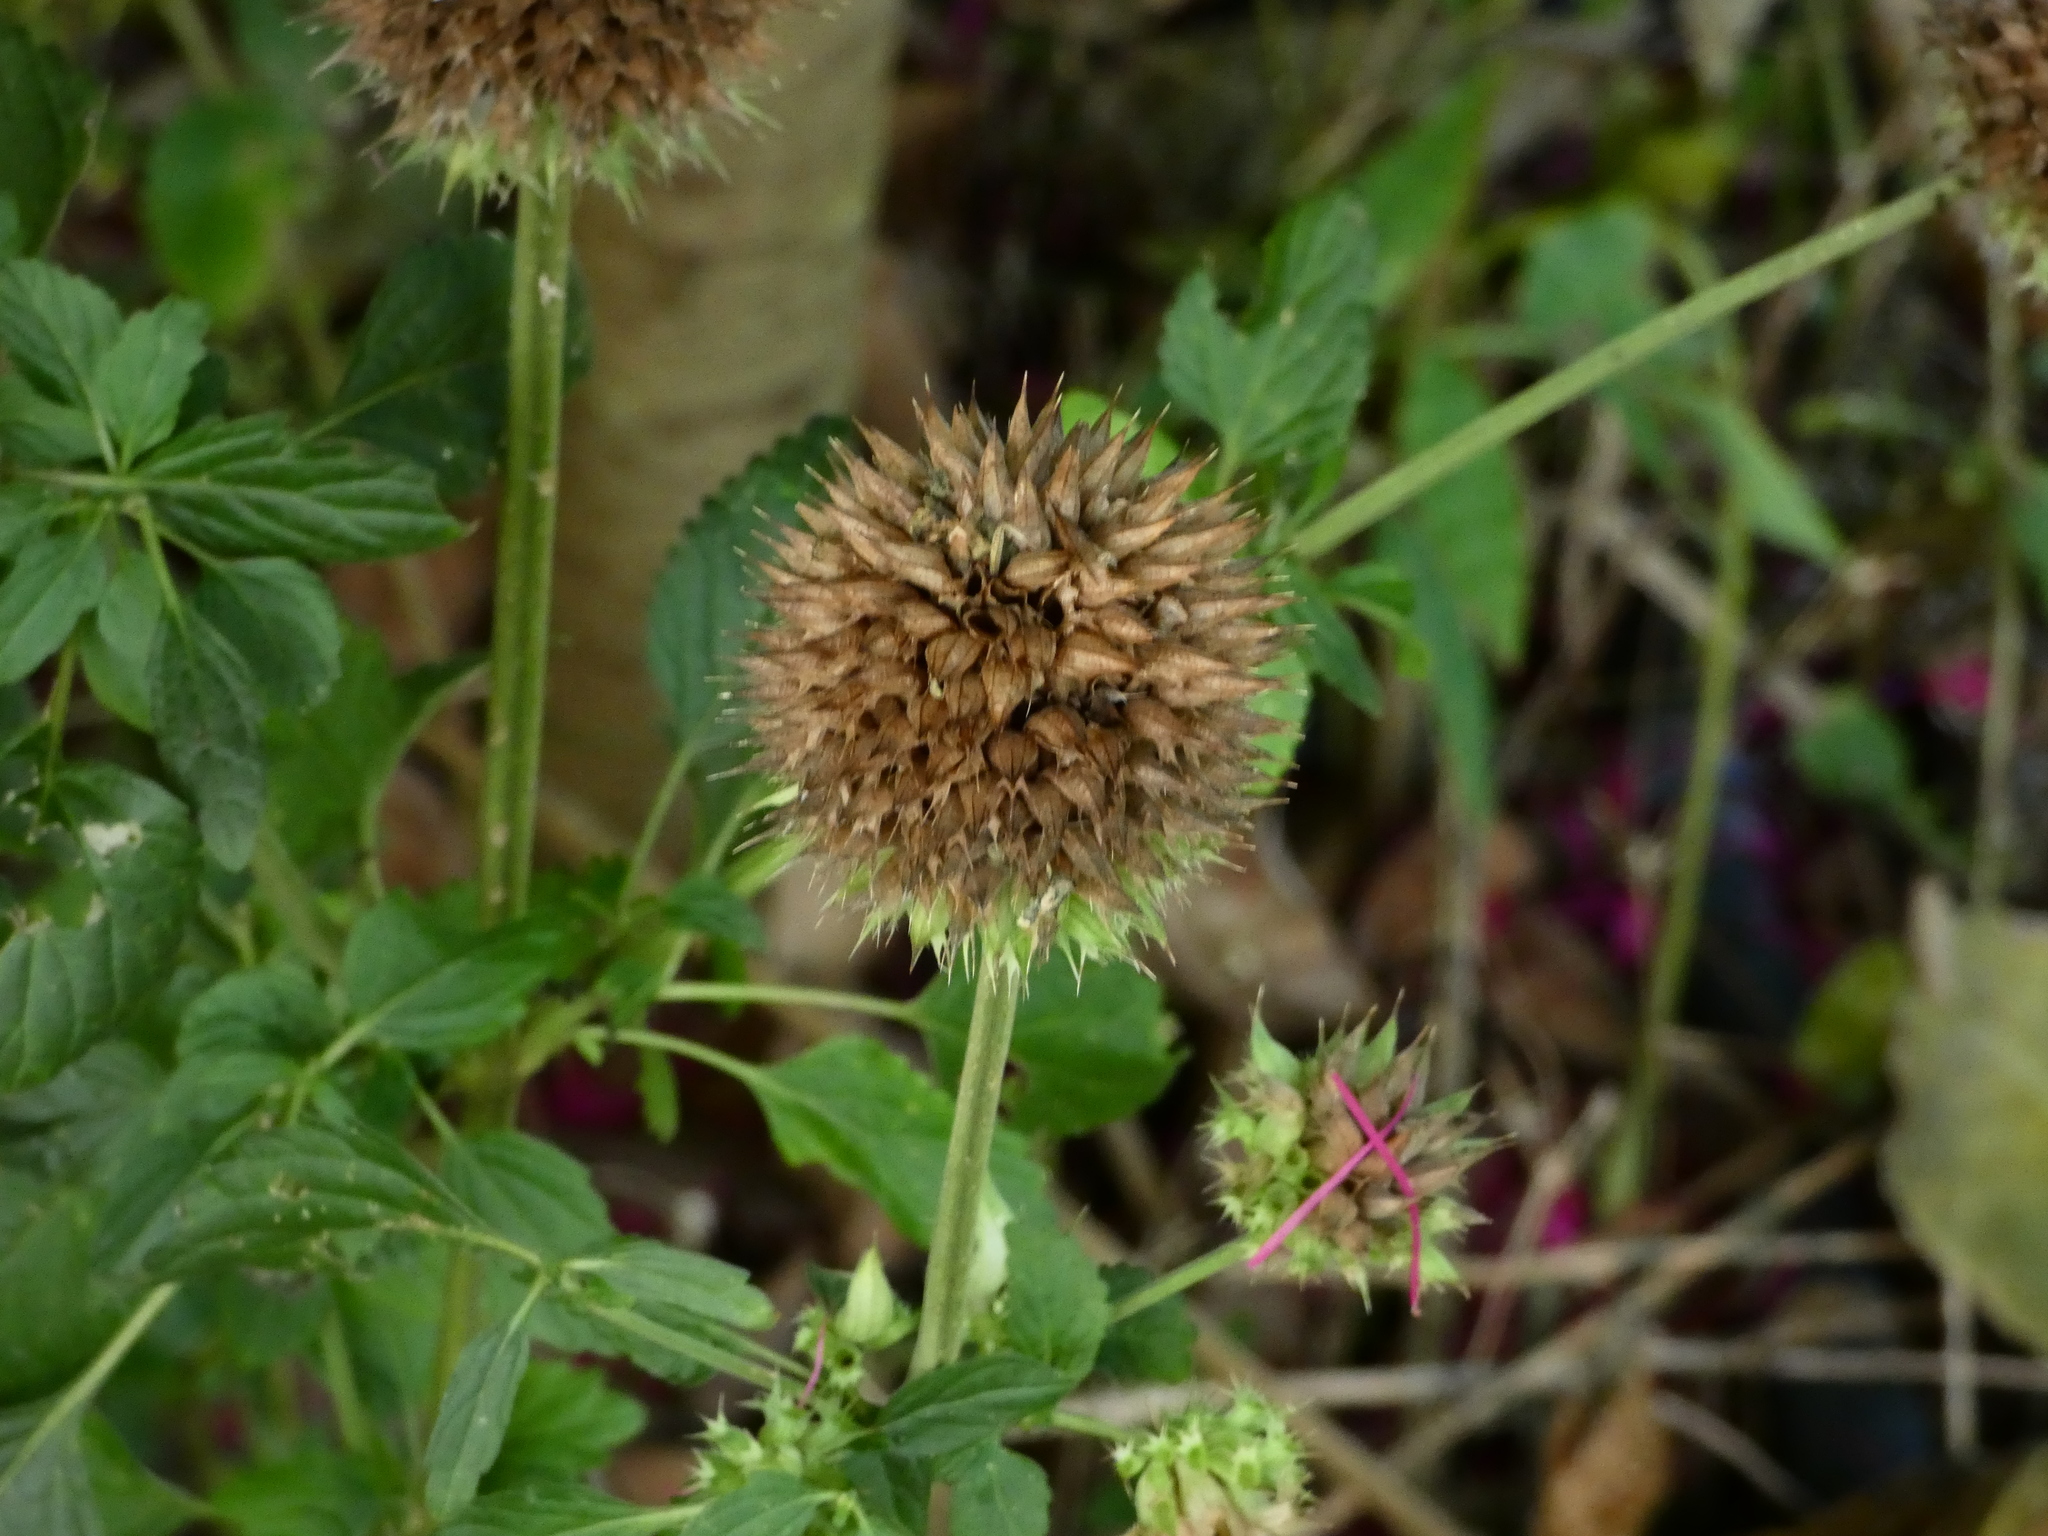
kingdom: Plantae
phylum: Tracheophyta
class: Magnoliopsida
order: Lamiales
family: Lamiaceae
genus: Leonotis
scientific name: Leonotis nepetifolia
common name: Christmas candlestick
